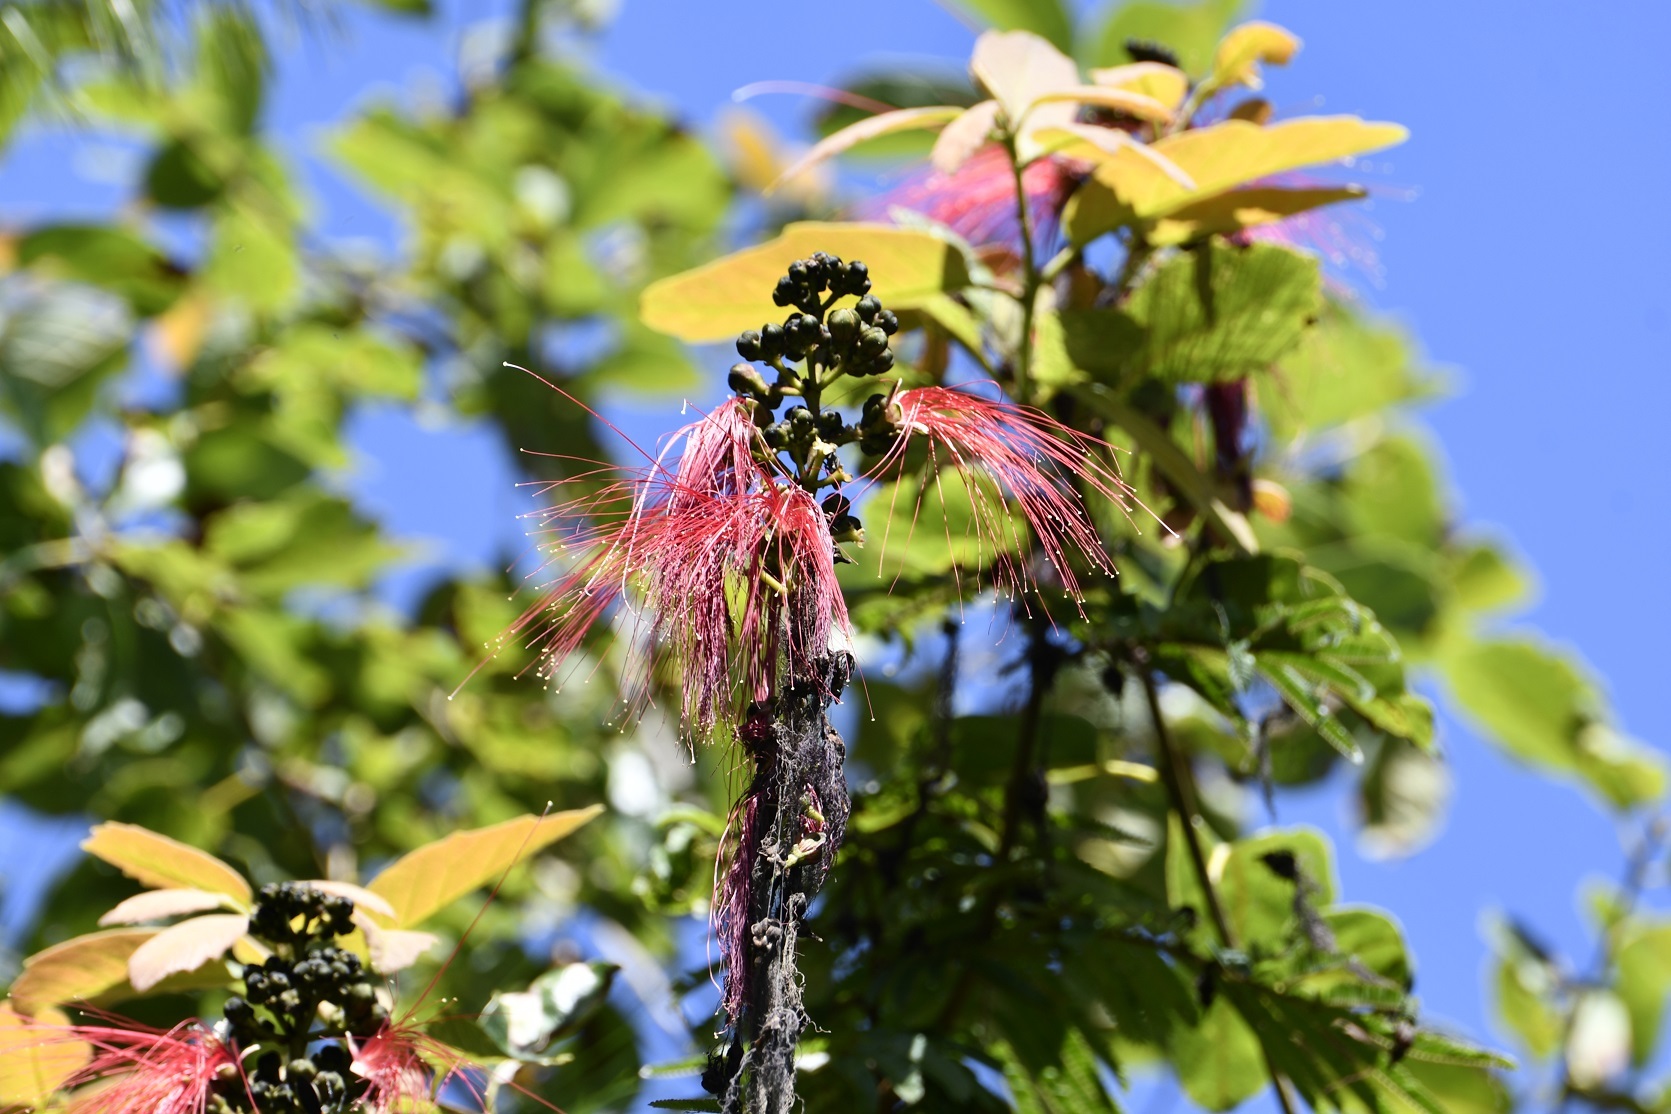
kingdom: Plantae
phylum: Tracheophyta
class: Magnoliopsida
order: Fabales
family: Fabaceae
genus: Calliandra
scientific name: Calliandra houstoniana
